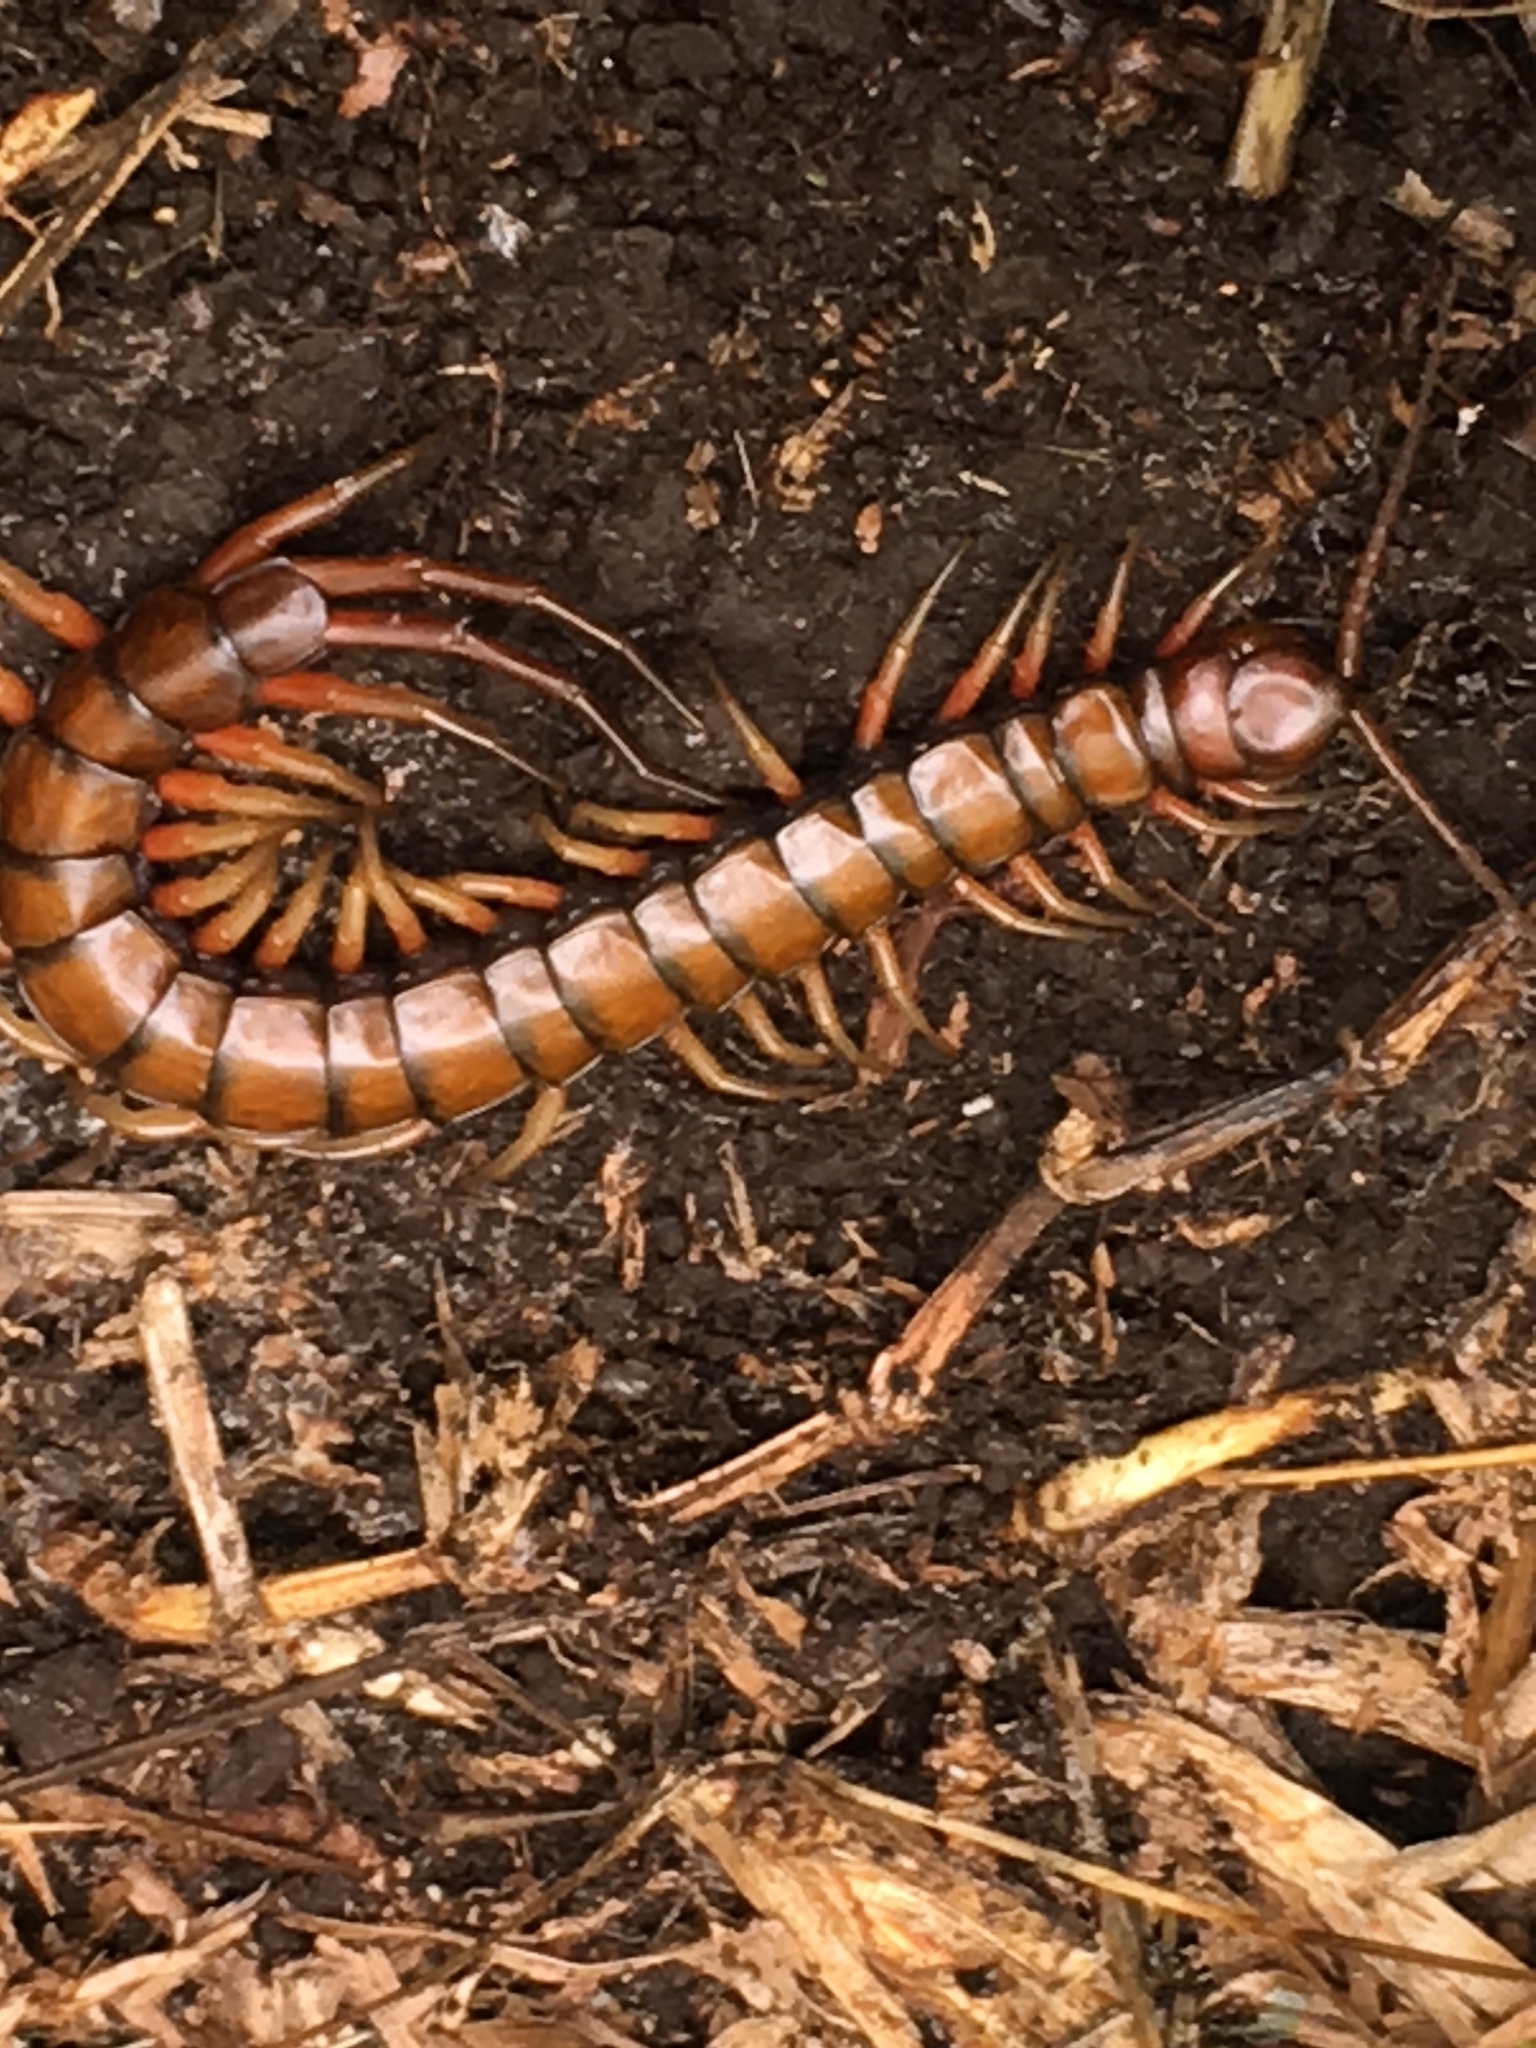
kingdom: Animalia
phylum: Arthropoda
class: Chilopoda
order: Scolopendromorpha
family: Scolopendridae
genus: Scolopendra
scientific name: Scolopendra subspinipes
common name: Centipede
